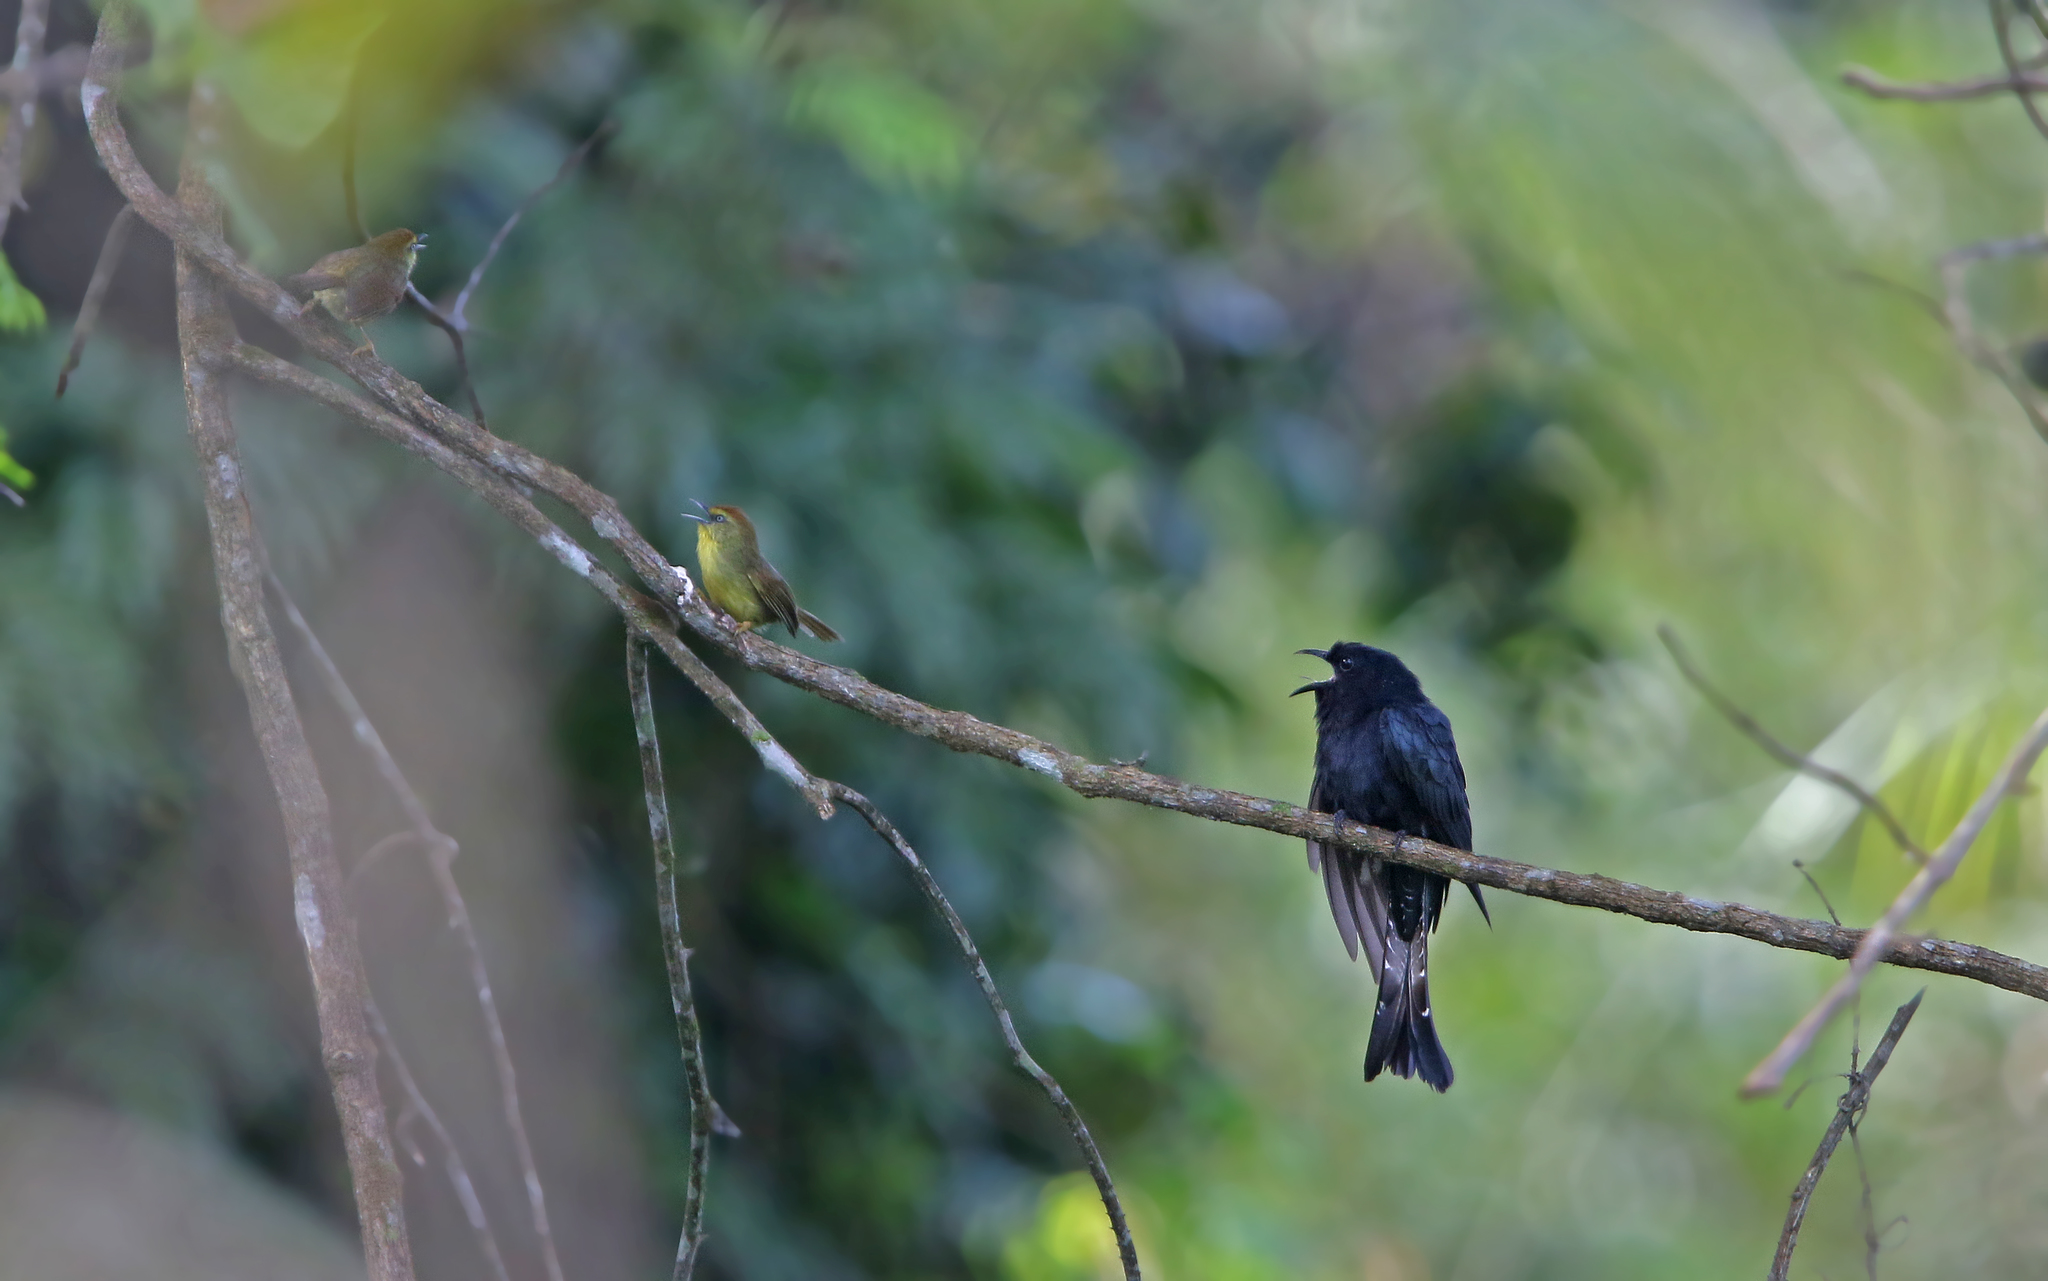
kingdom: Animalia
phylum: Chordata
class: Aves
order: Cuculiformes
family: Cuculidae
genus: Surniculus
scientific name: Surniculus lugubris
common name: Square-tailed drongo-cuckoo
